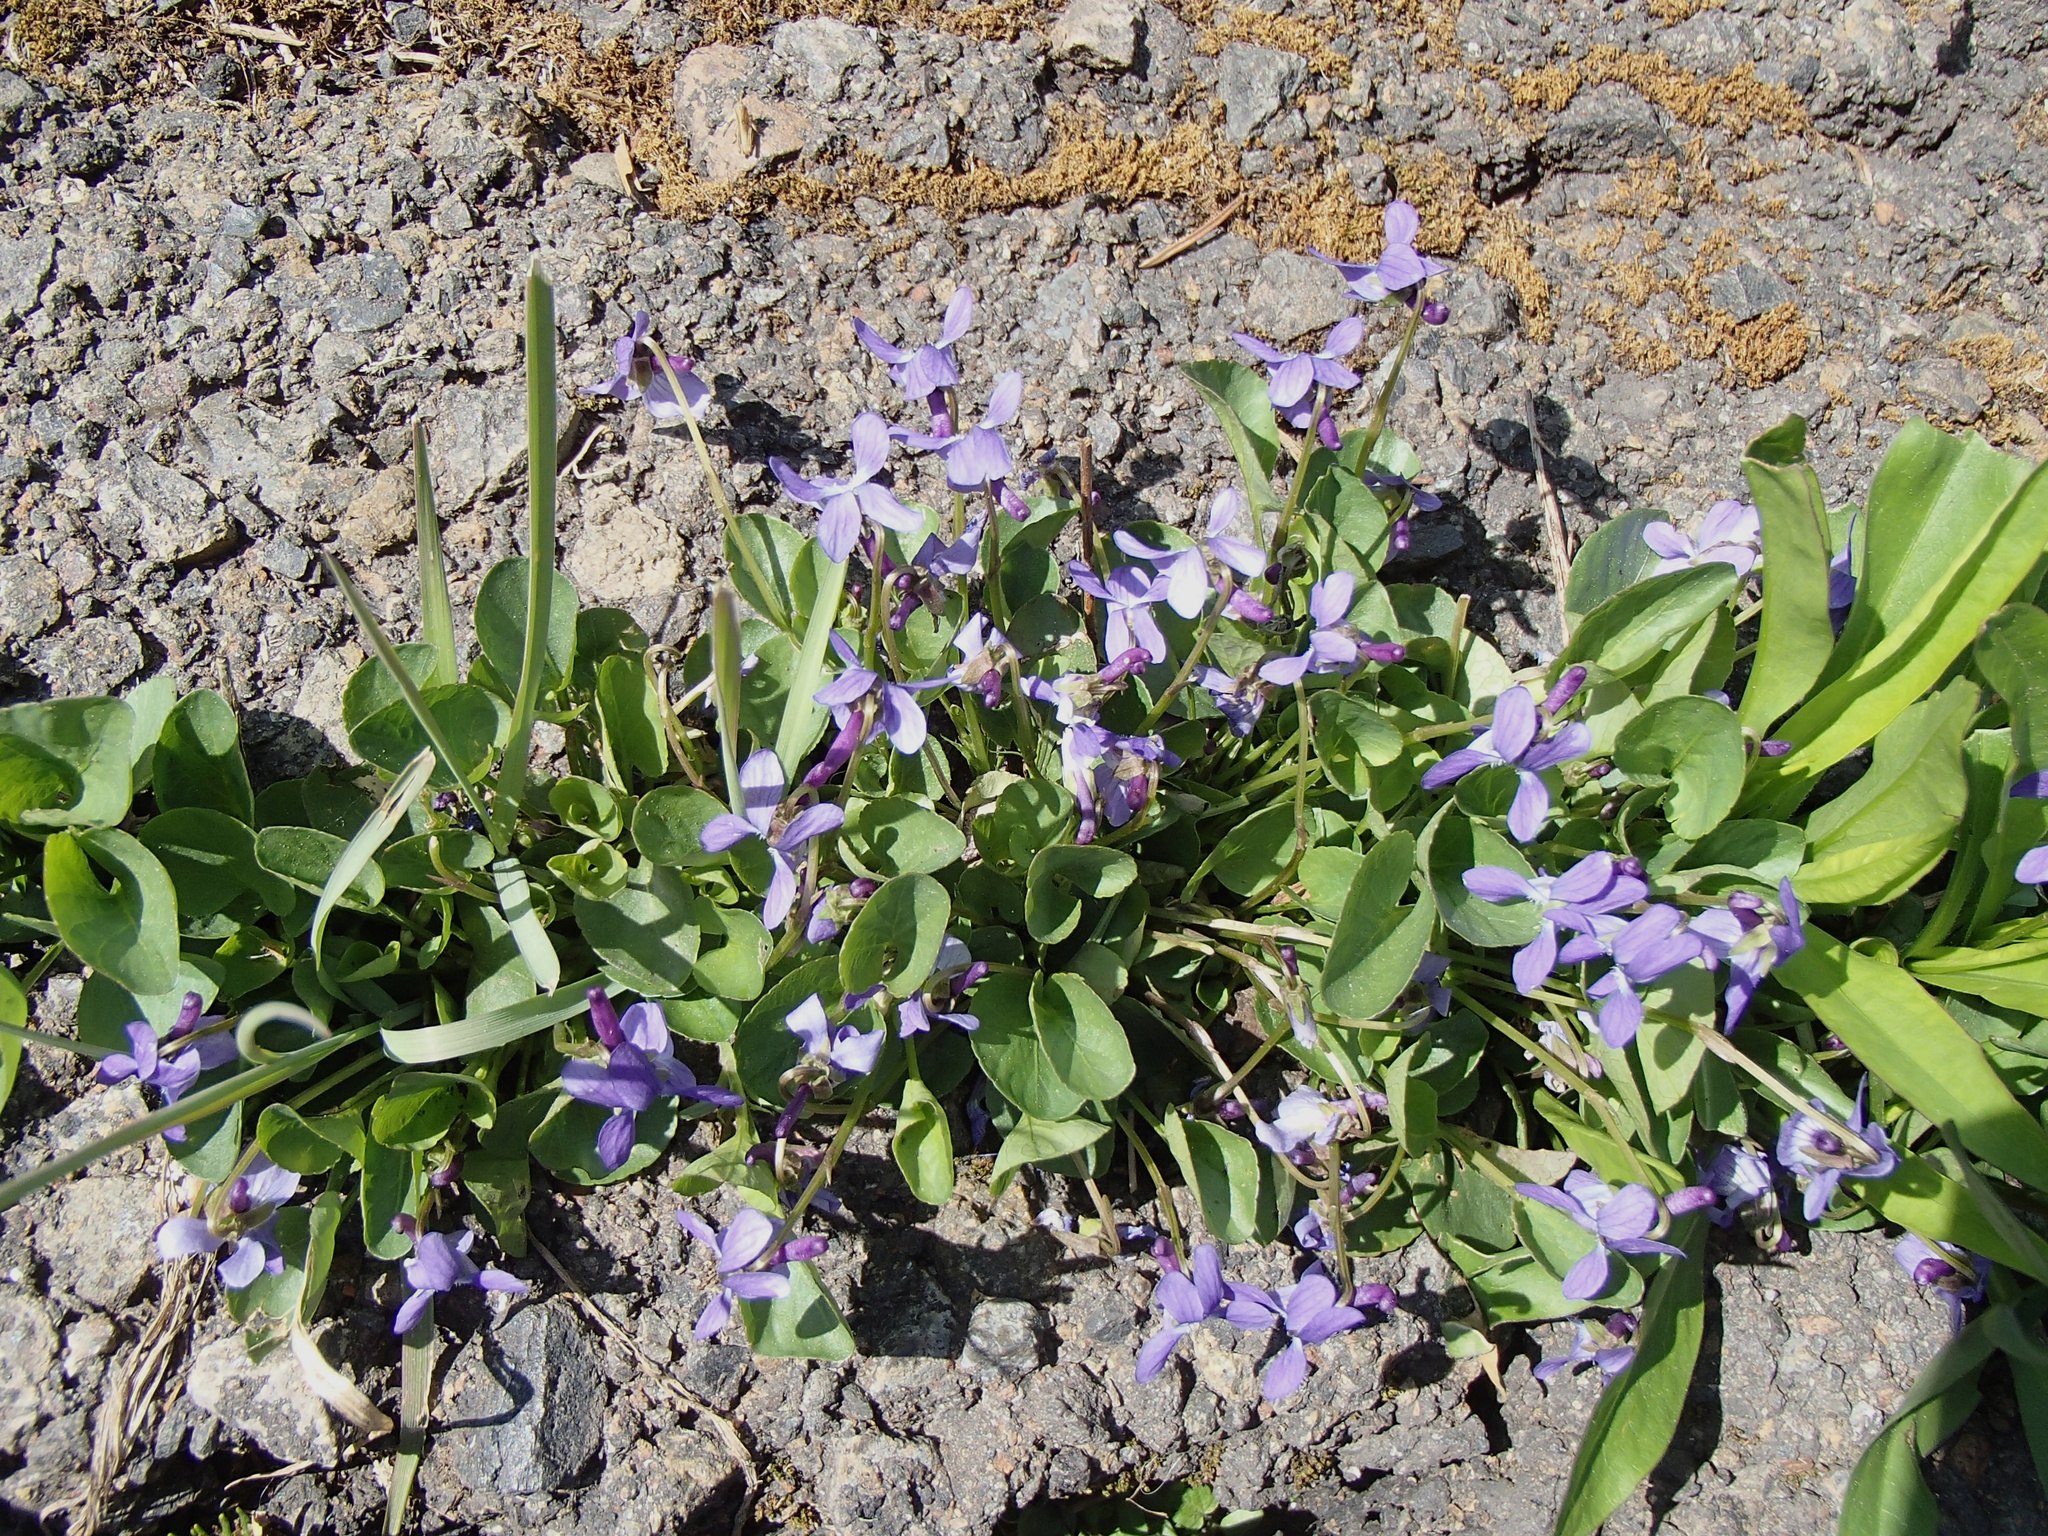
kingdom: Plantae
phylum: Tracheophyta
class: Magnoliopsida
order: Malpighiales
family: Violaceae
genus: Viola
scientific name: Viola adunca
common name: Sand violet
